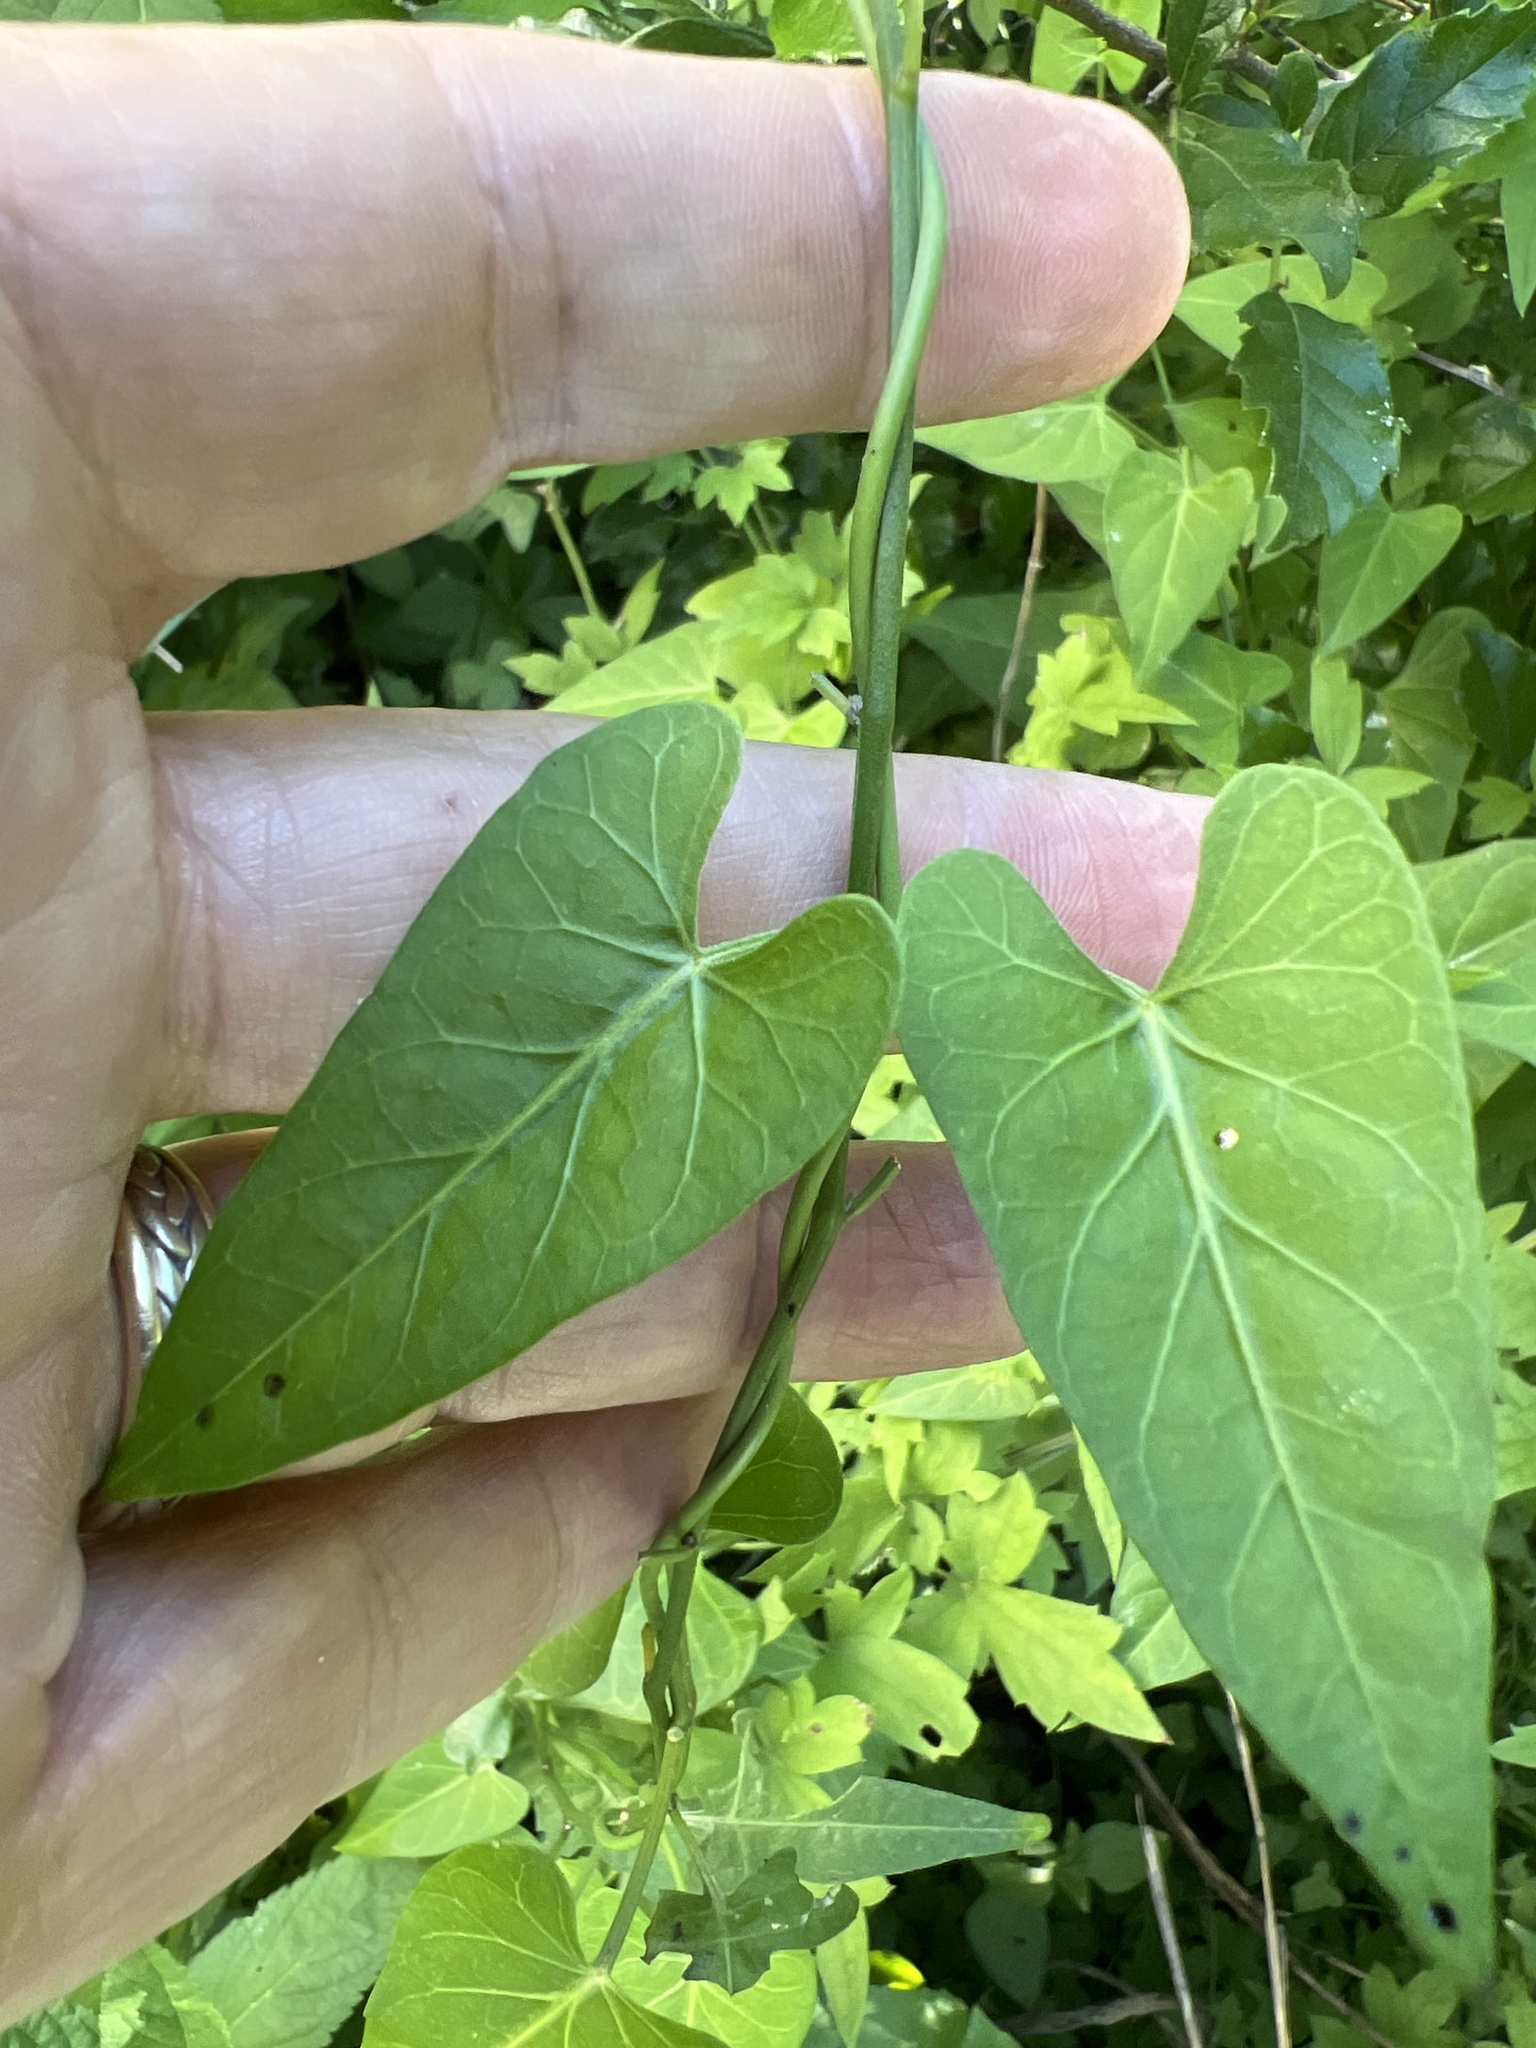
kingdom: Plantae
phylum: Tracheophyta
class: Magnoliopsida
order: Gentianales
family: Apocynaceae
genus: Funastrum
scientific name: Funastrum cynanchoides
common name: Climbing-milkweed
